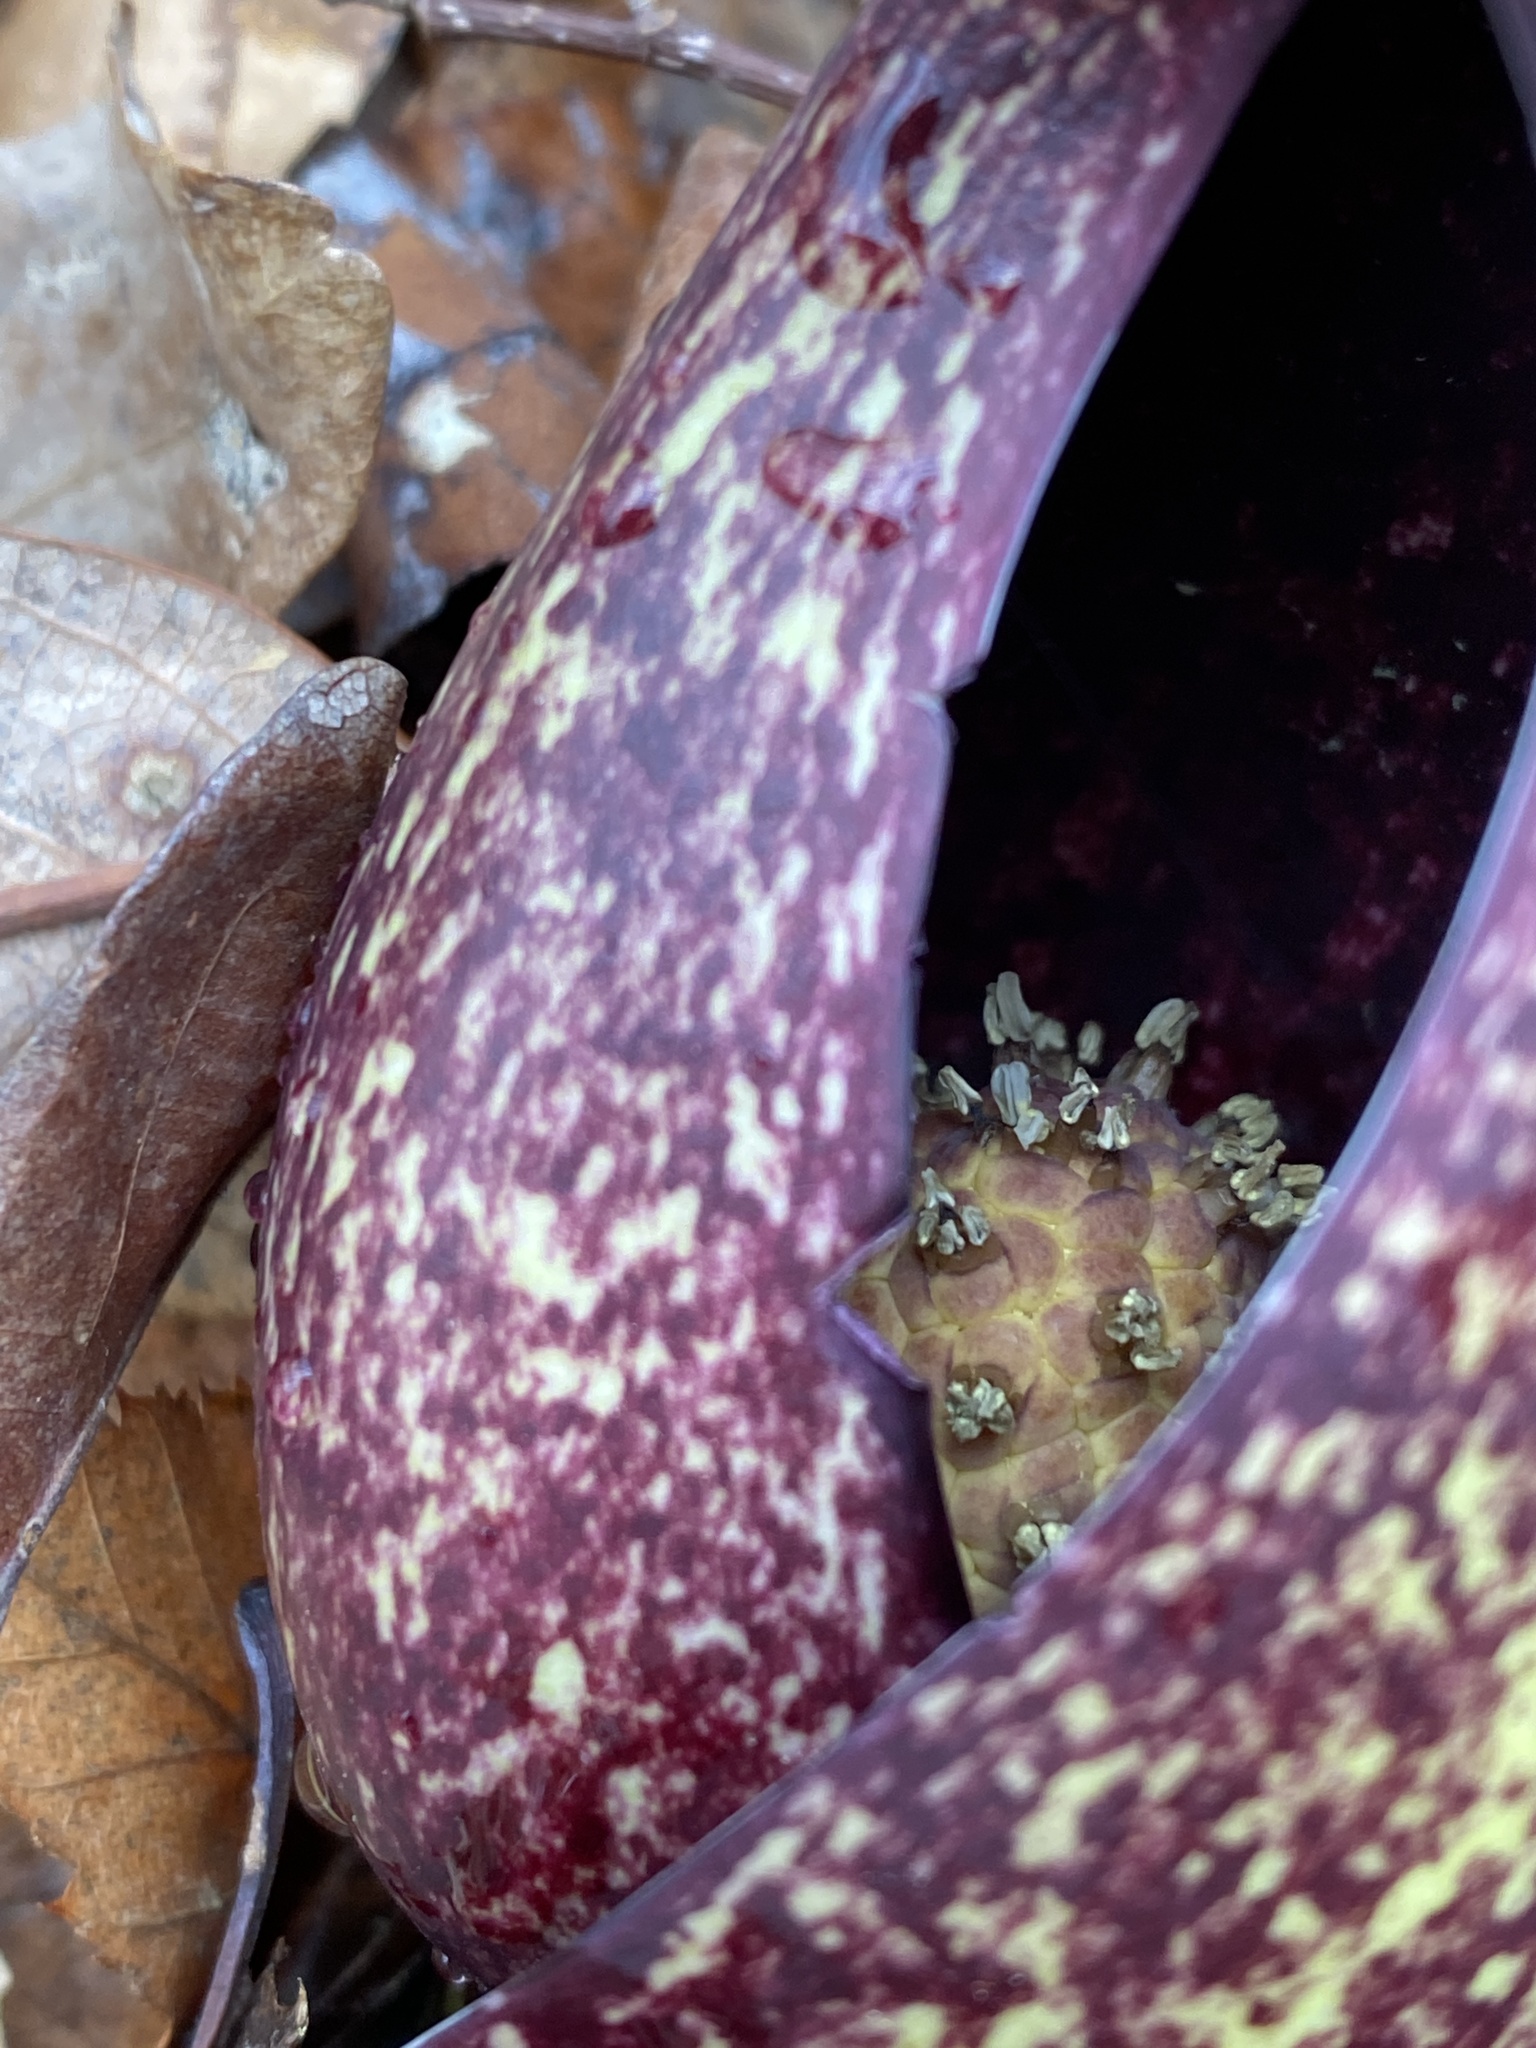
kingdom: Plantae
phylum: Tracheophyta
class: Liliopsida
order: Alismatales
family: Araceae
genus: Symplocarpus
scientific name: Symplocarpus foetidus
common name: Eastern skunk cabbage
